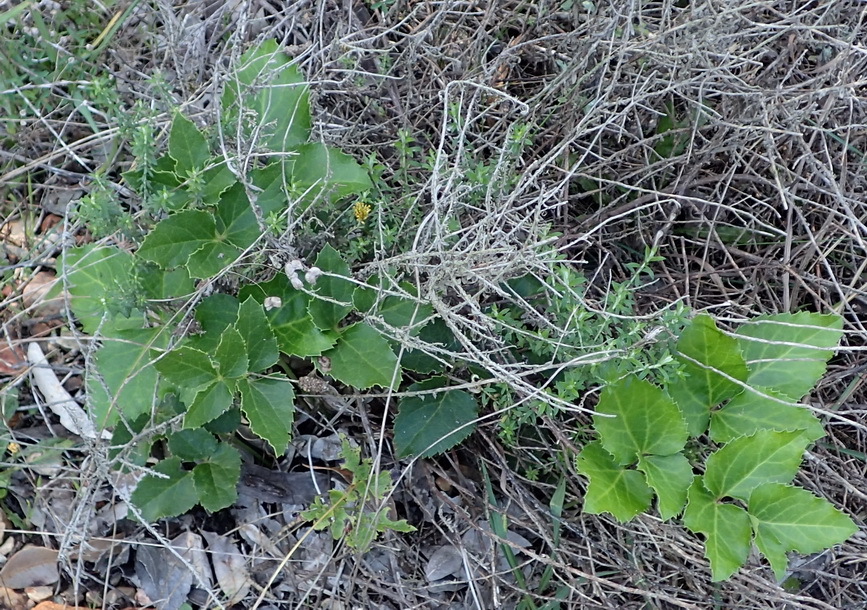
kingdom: Plantae
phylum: Tracheophyta
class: Magnoliopsida
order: Ranunculales
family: Ranunculaceae
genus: Knowltonia
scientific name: Knowltonia vesicatoria
